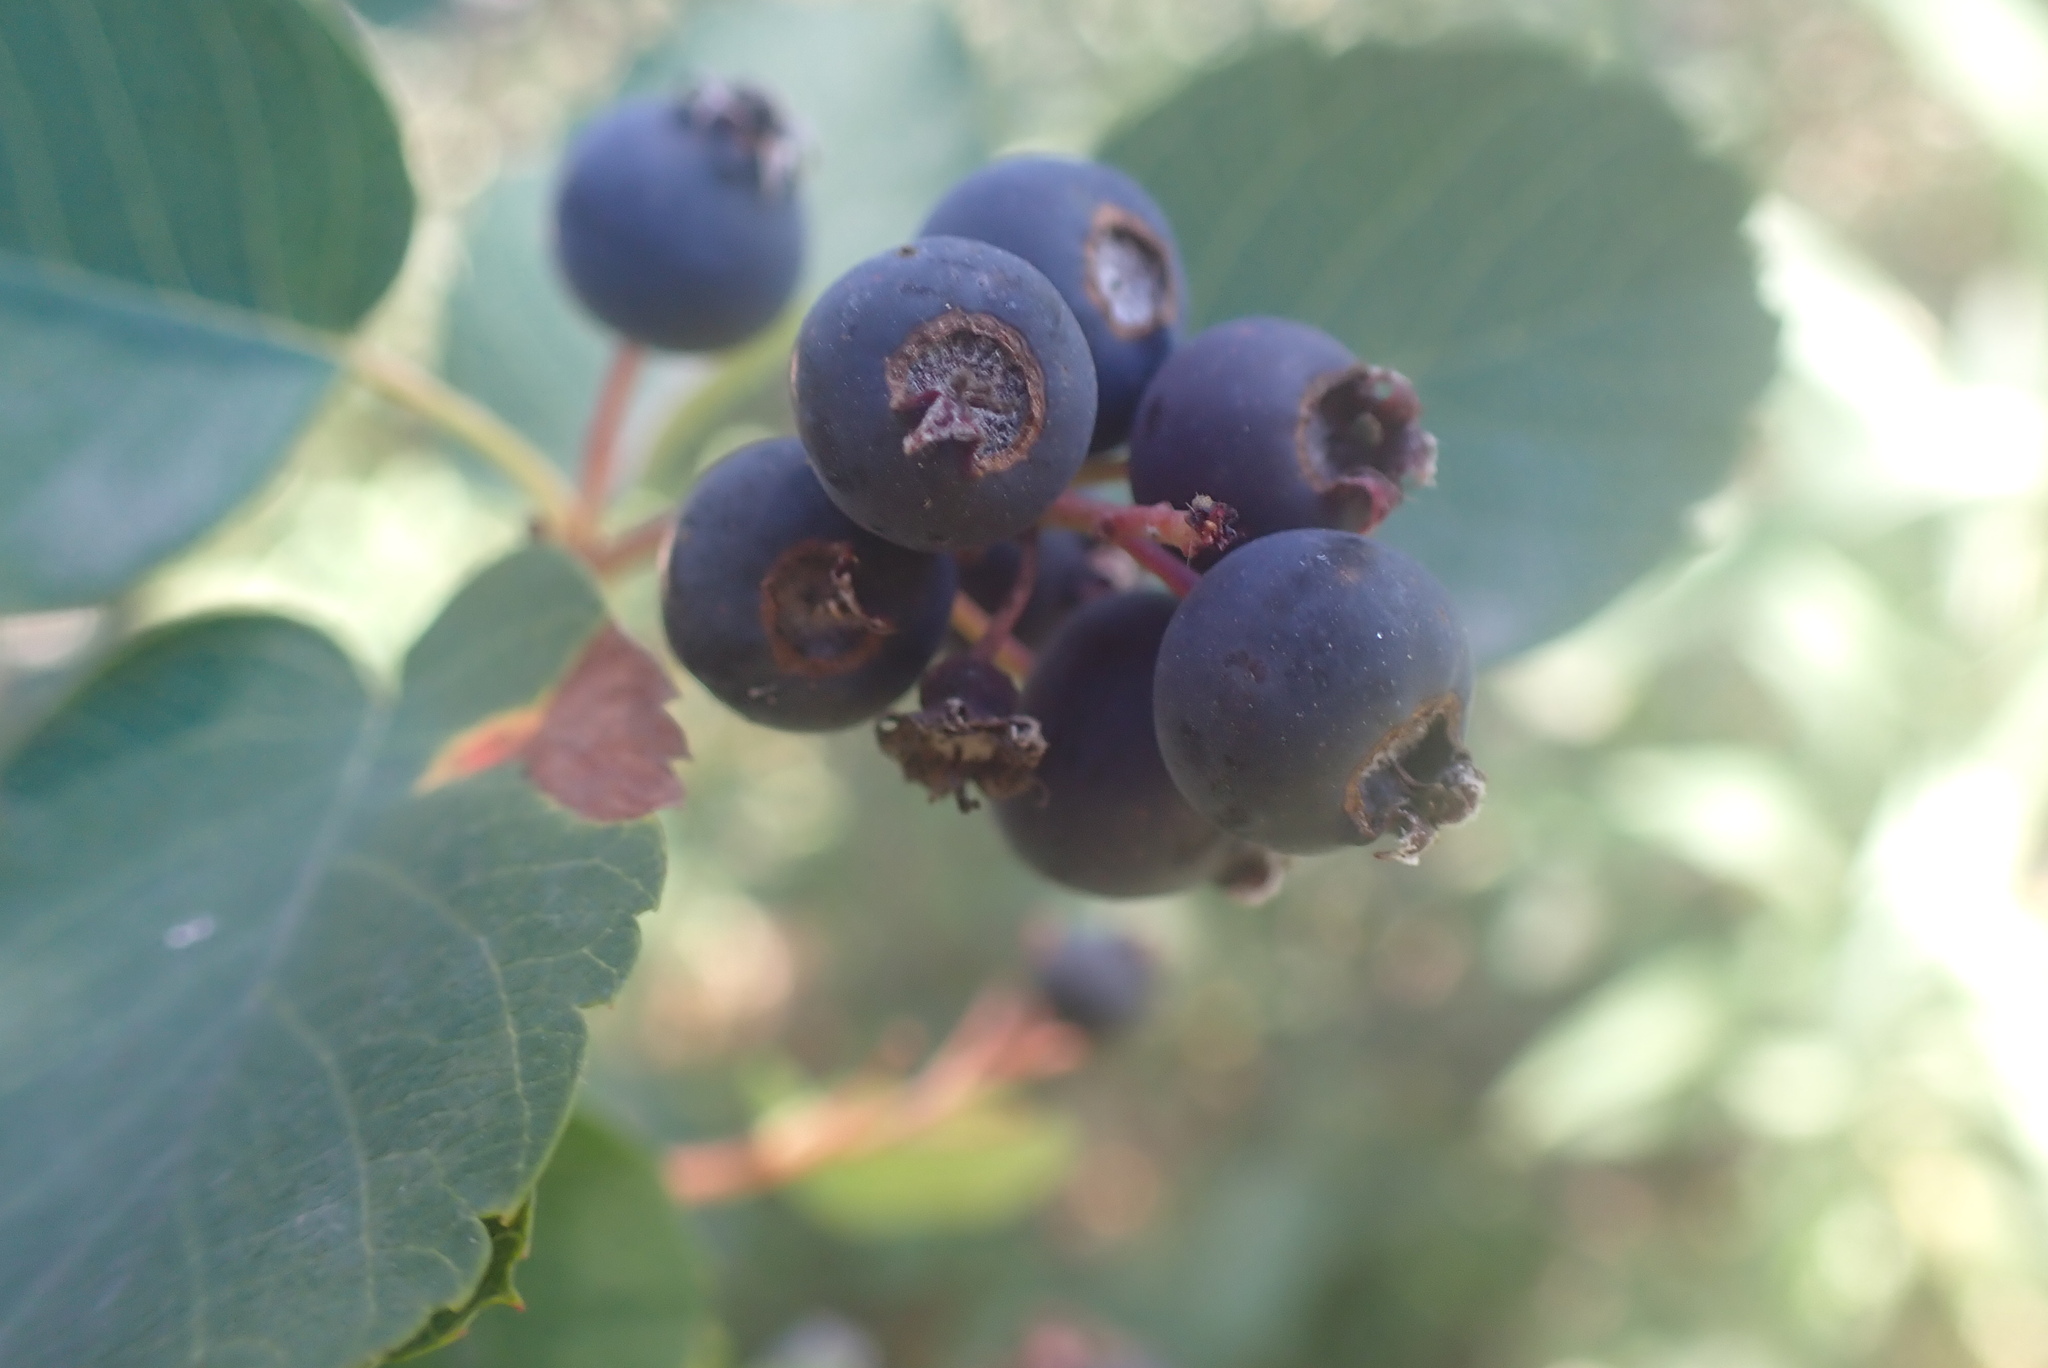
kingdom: Plantae
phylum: Tracheophyta
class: Magnoliopsida
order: Rosales
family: Rosaceae
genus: Amelanchier
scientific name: Amelanchier alnifolia
